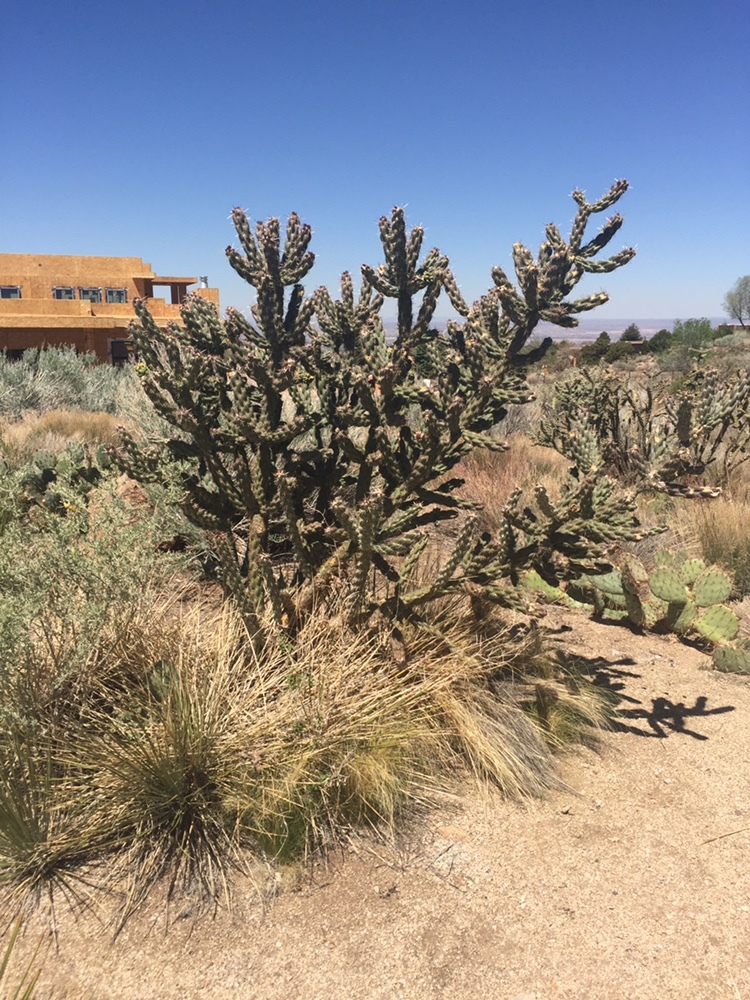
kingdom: Plantae
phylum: Tracheophyta
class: Magnoliopsida
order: Caryophyllales
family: Cactaceae
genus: Cylindropuntia
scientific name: Cylindropuntia imbricata
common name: Candelabrum cactus
